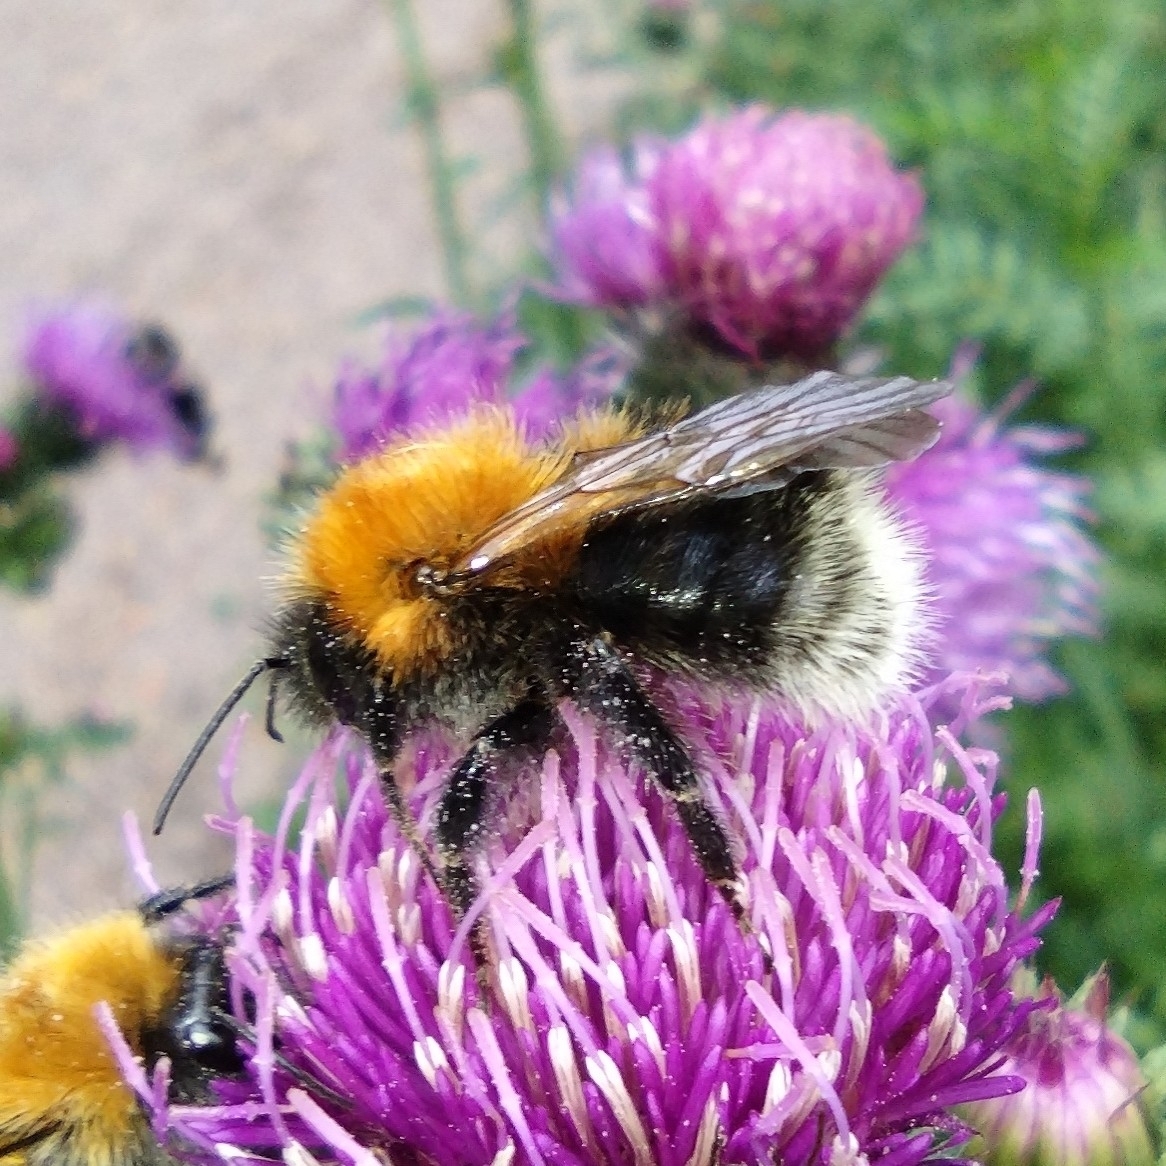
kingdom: Animalia
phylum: Arthropoda
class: Insecta
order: Hymenoptera
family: Apidae
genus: Bombus
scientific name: Bombus hypnorum
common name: New garden bumblebee
